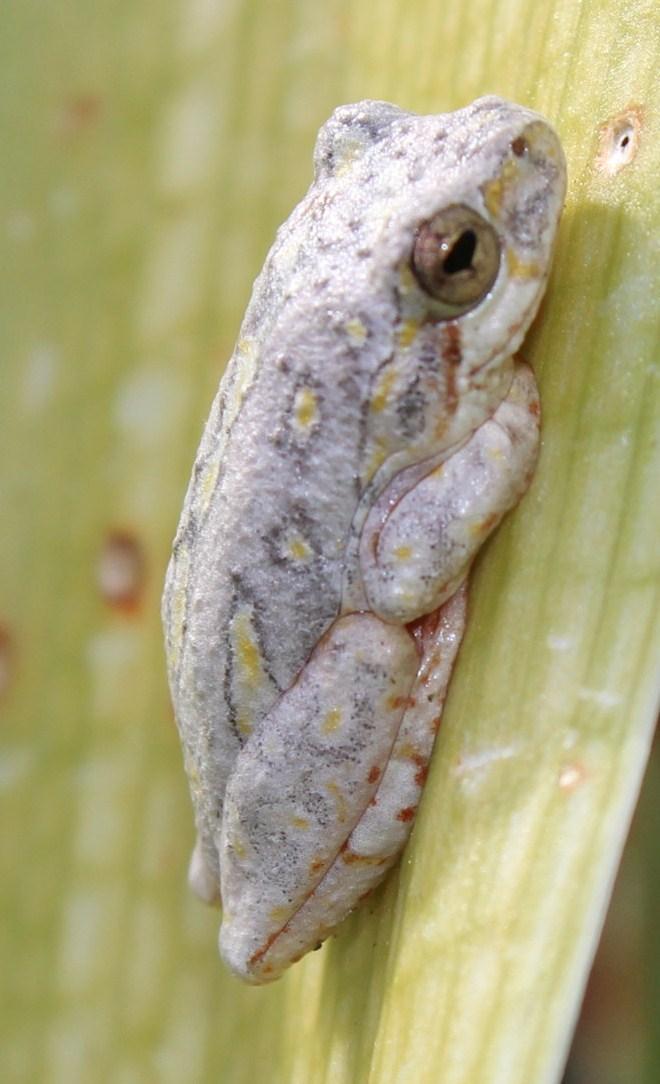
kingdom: Animalia
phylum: Chordata
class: Amphibia
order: Anura
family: Hyperoliidae
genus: Hyperolius
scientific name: Hyperolius marmoratus
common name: Painted reed frog
